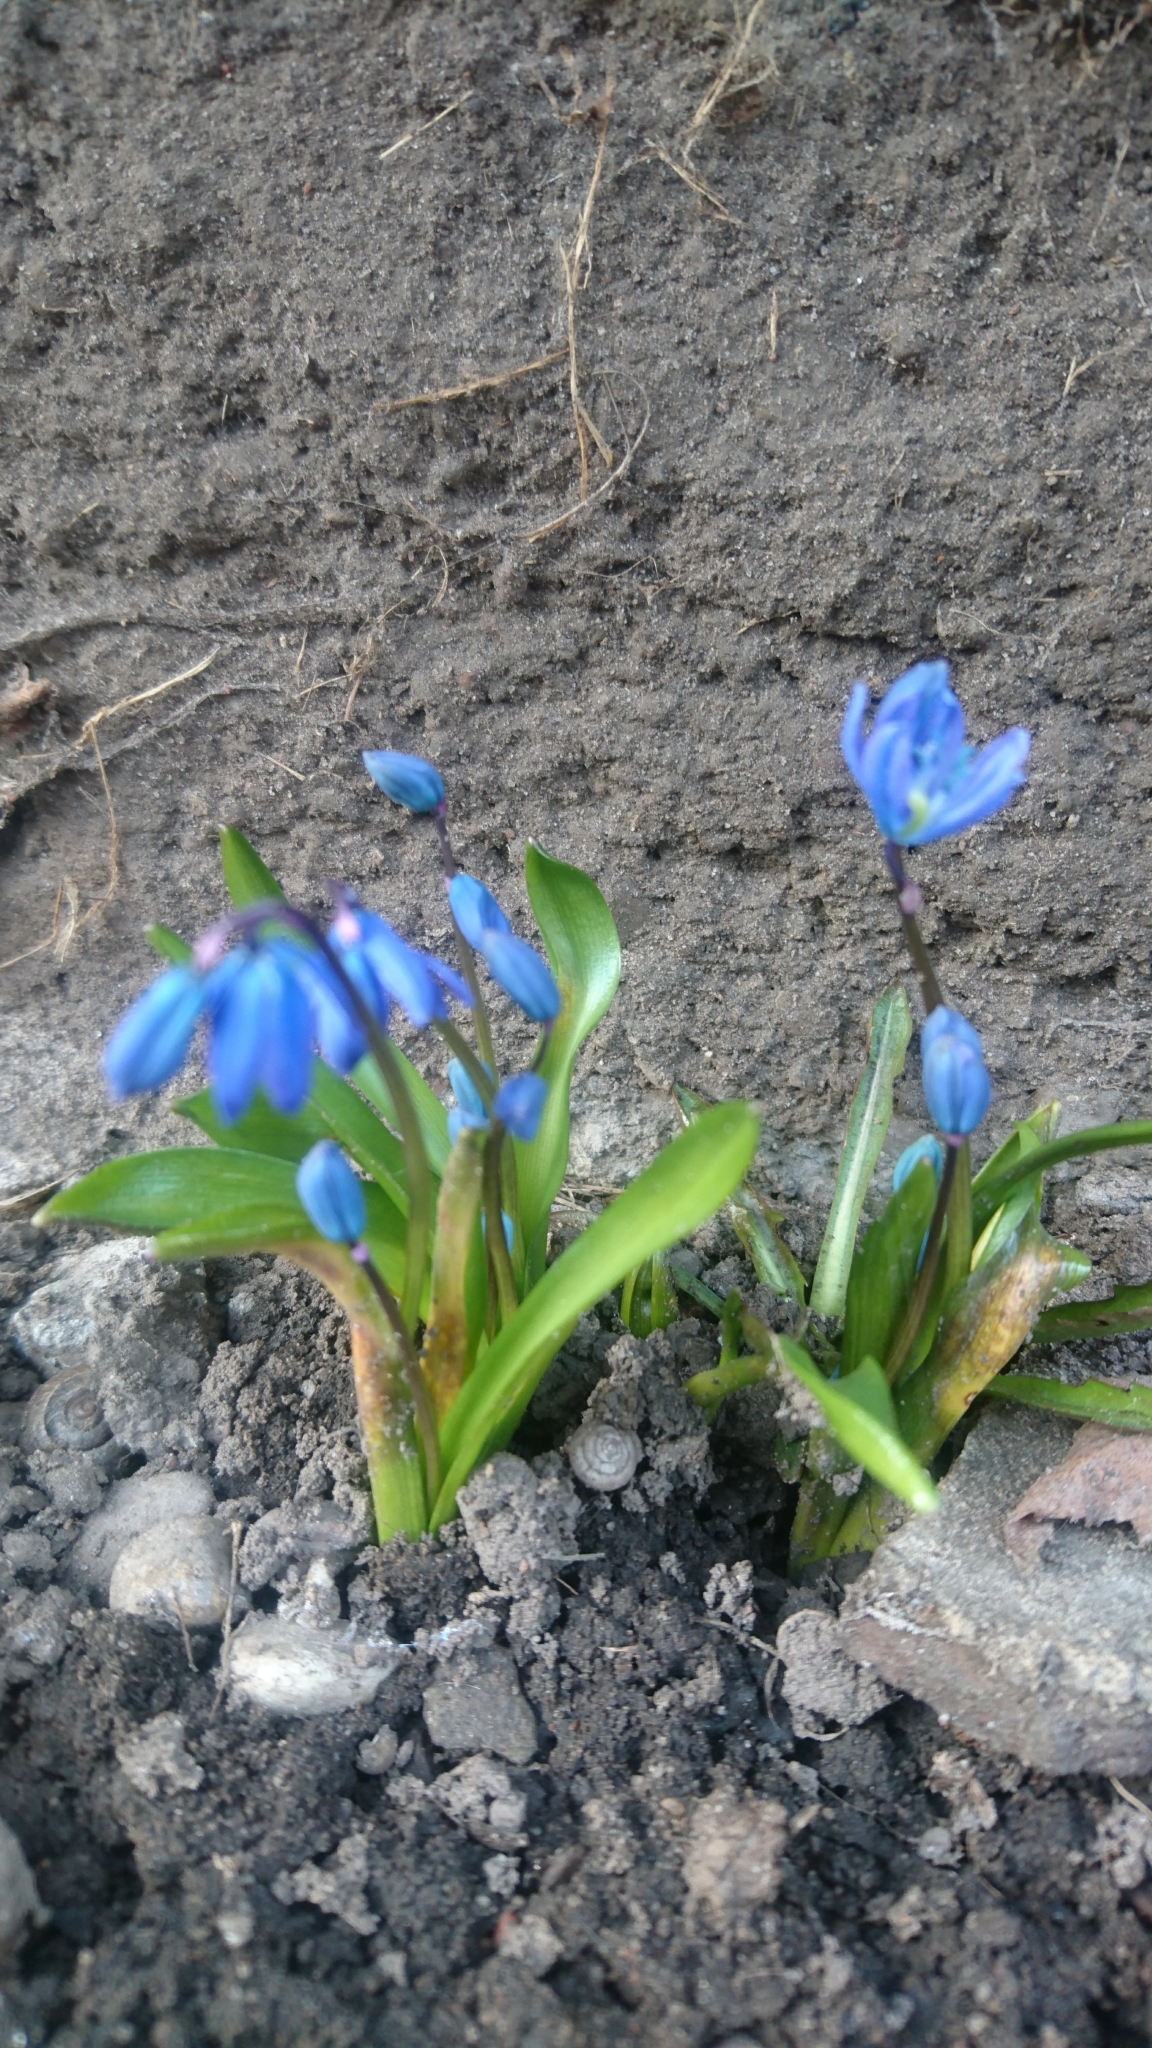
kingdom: Plantae
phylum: Tracheophyta
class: Liliopsida
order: Asparagales
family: Asparagaceae
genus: Scilla
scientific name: Scilla siberica
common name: Siberian squill
